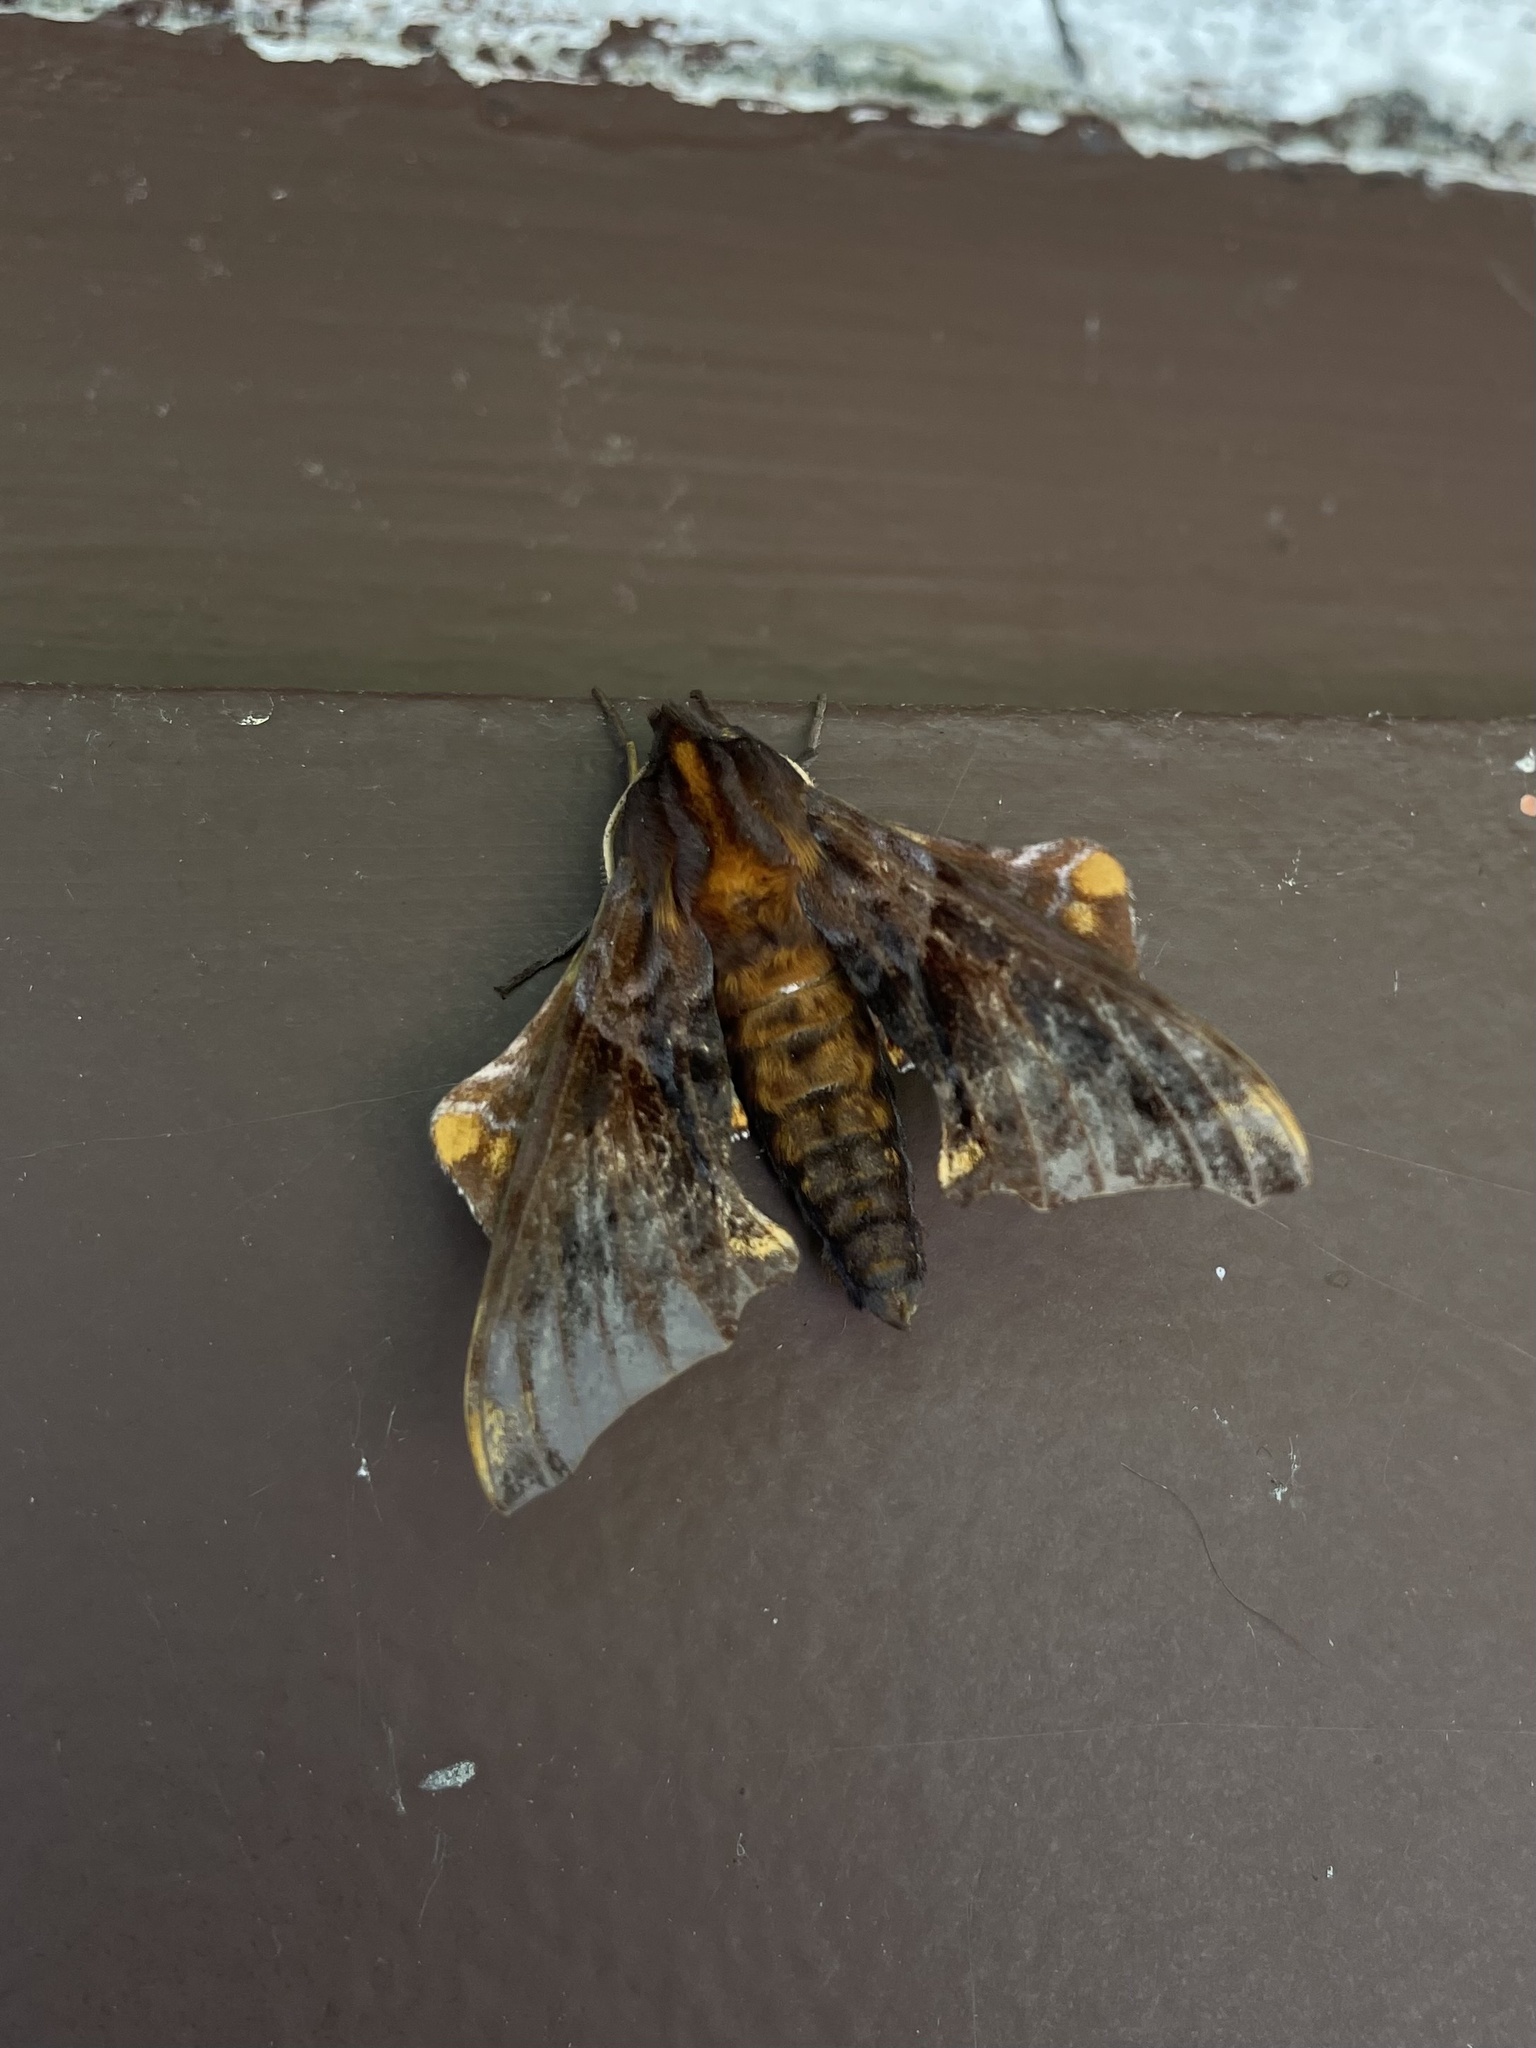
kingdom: Animalia
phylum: Arthropoda
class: Insecta
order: Lepidoptera
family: Sphingidae
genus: Paonias
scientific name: Paonias myops
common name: Small-eyed sphinx
